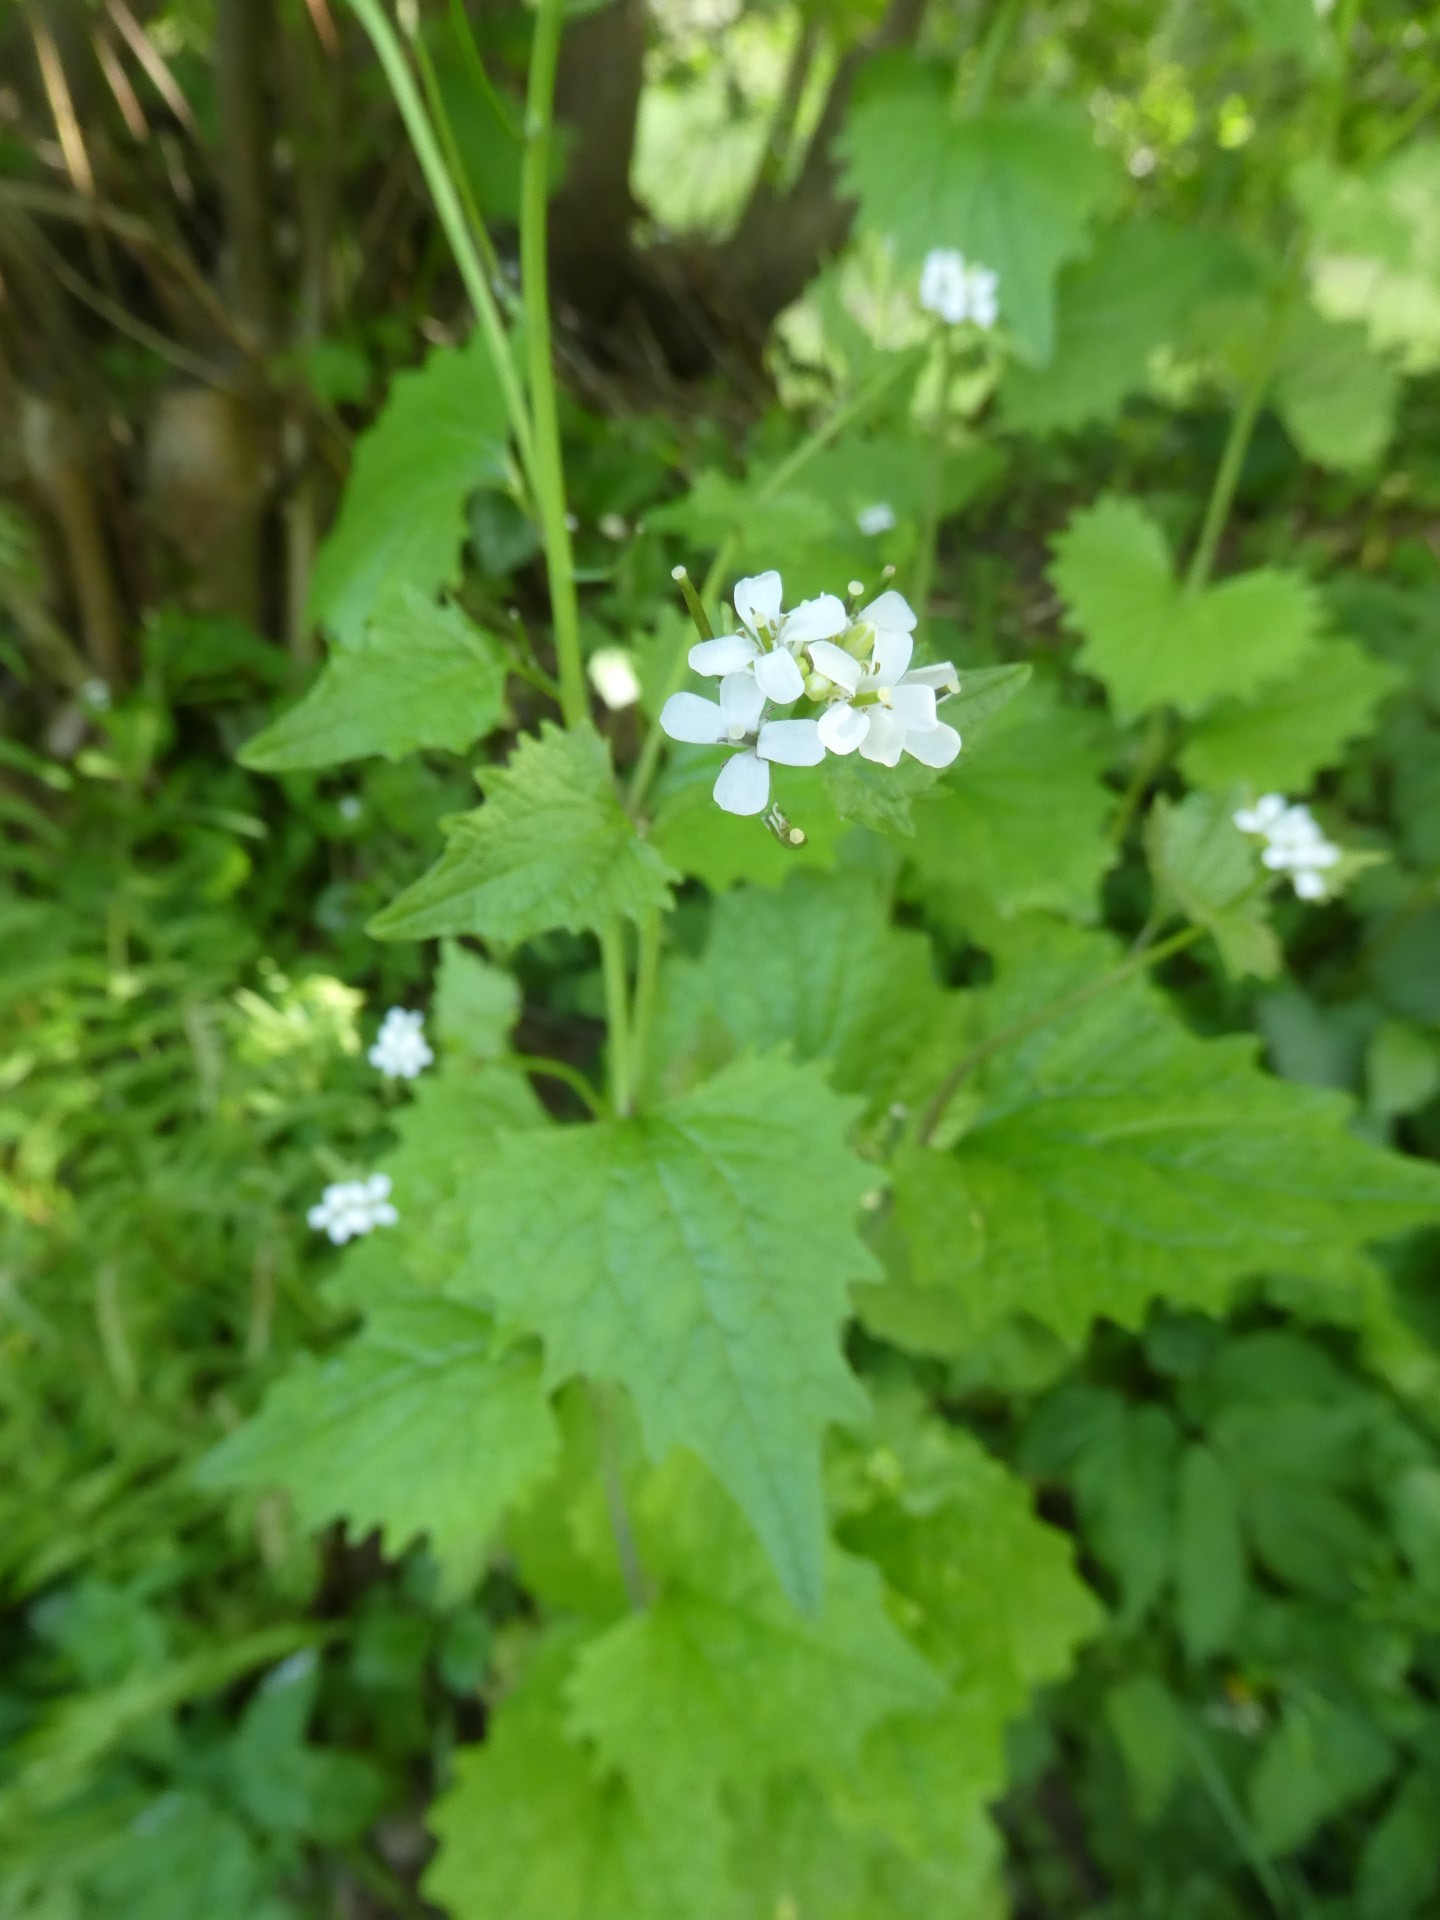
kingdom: Plantae
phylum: Tracheophyta
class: Magnoliopsida
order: Brassicales
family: Brassicaceae
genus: Alliaria
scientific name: Alliaria petiolata
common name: Garlic mustard
